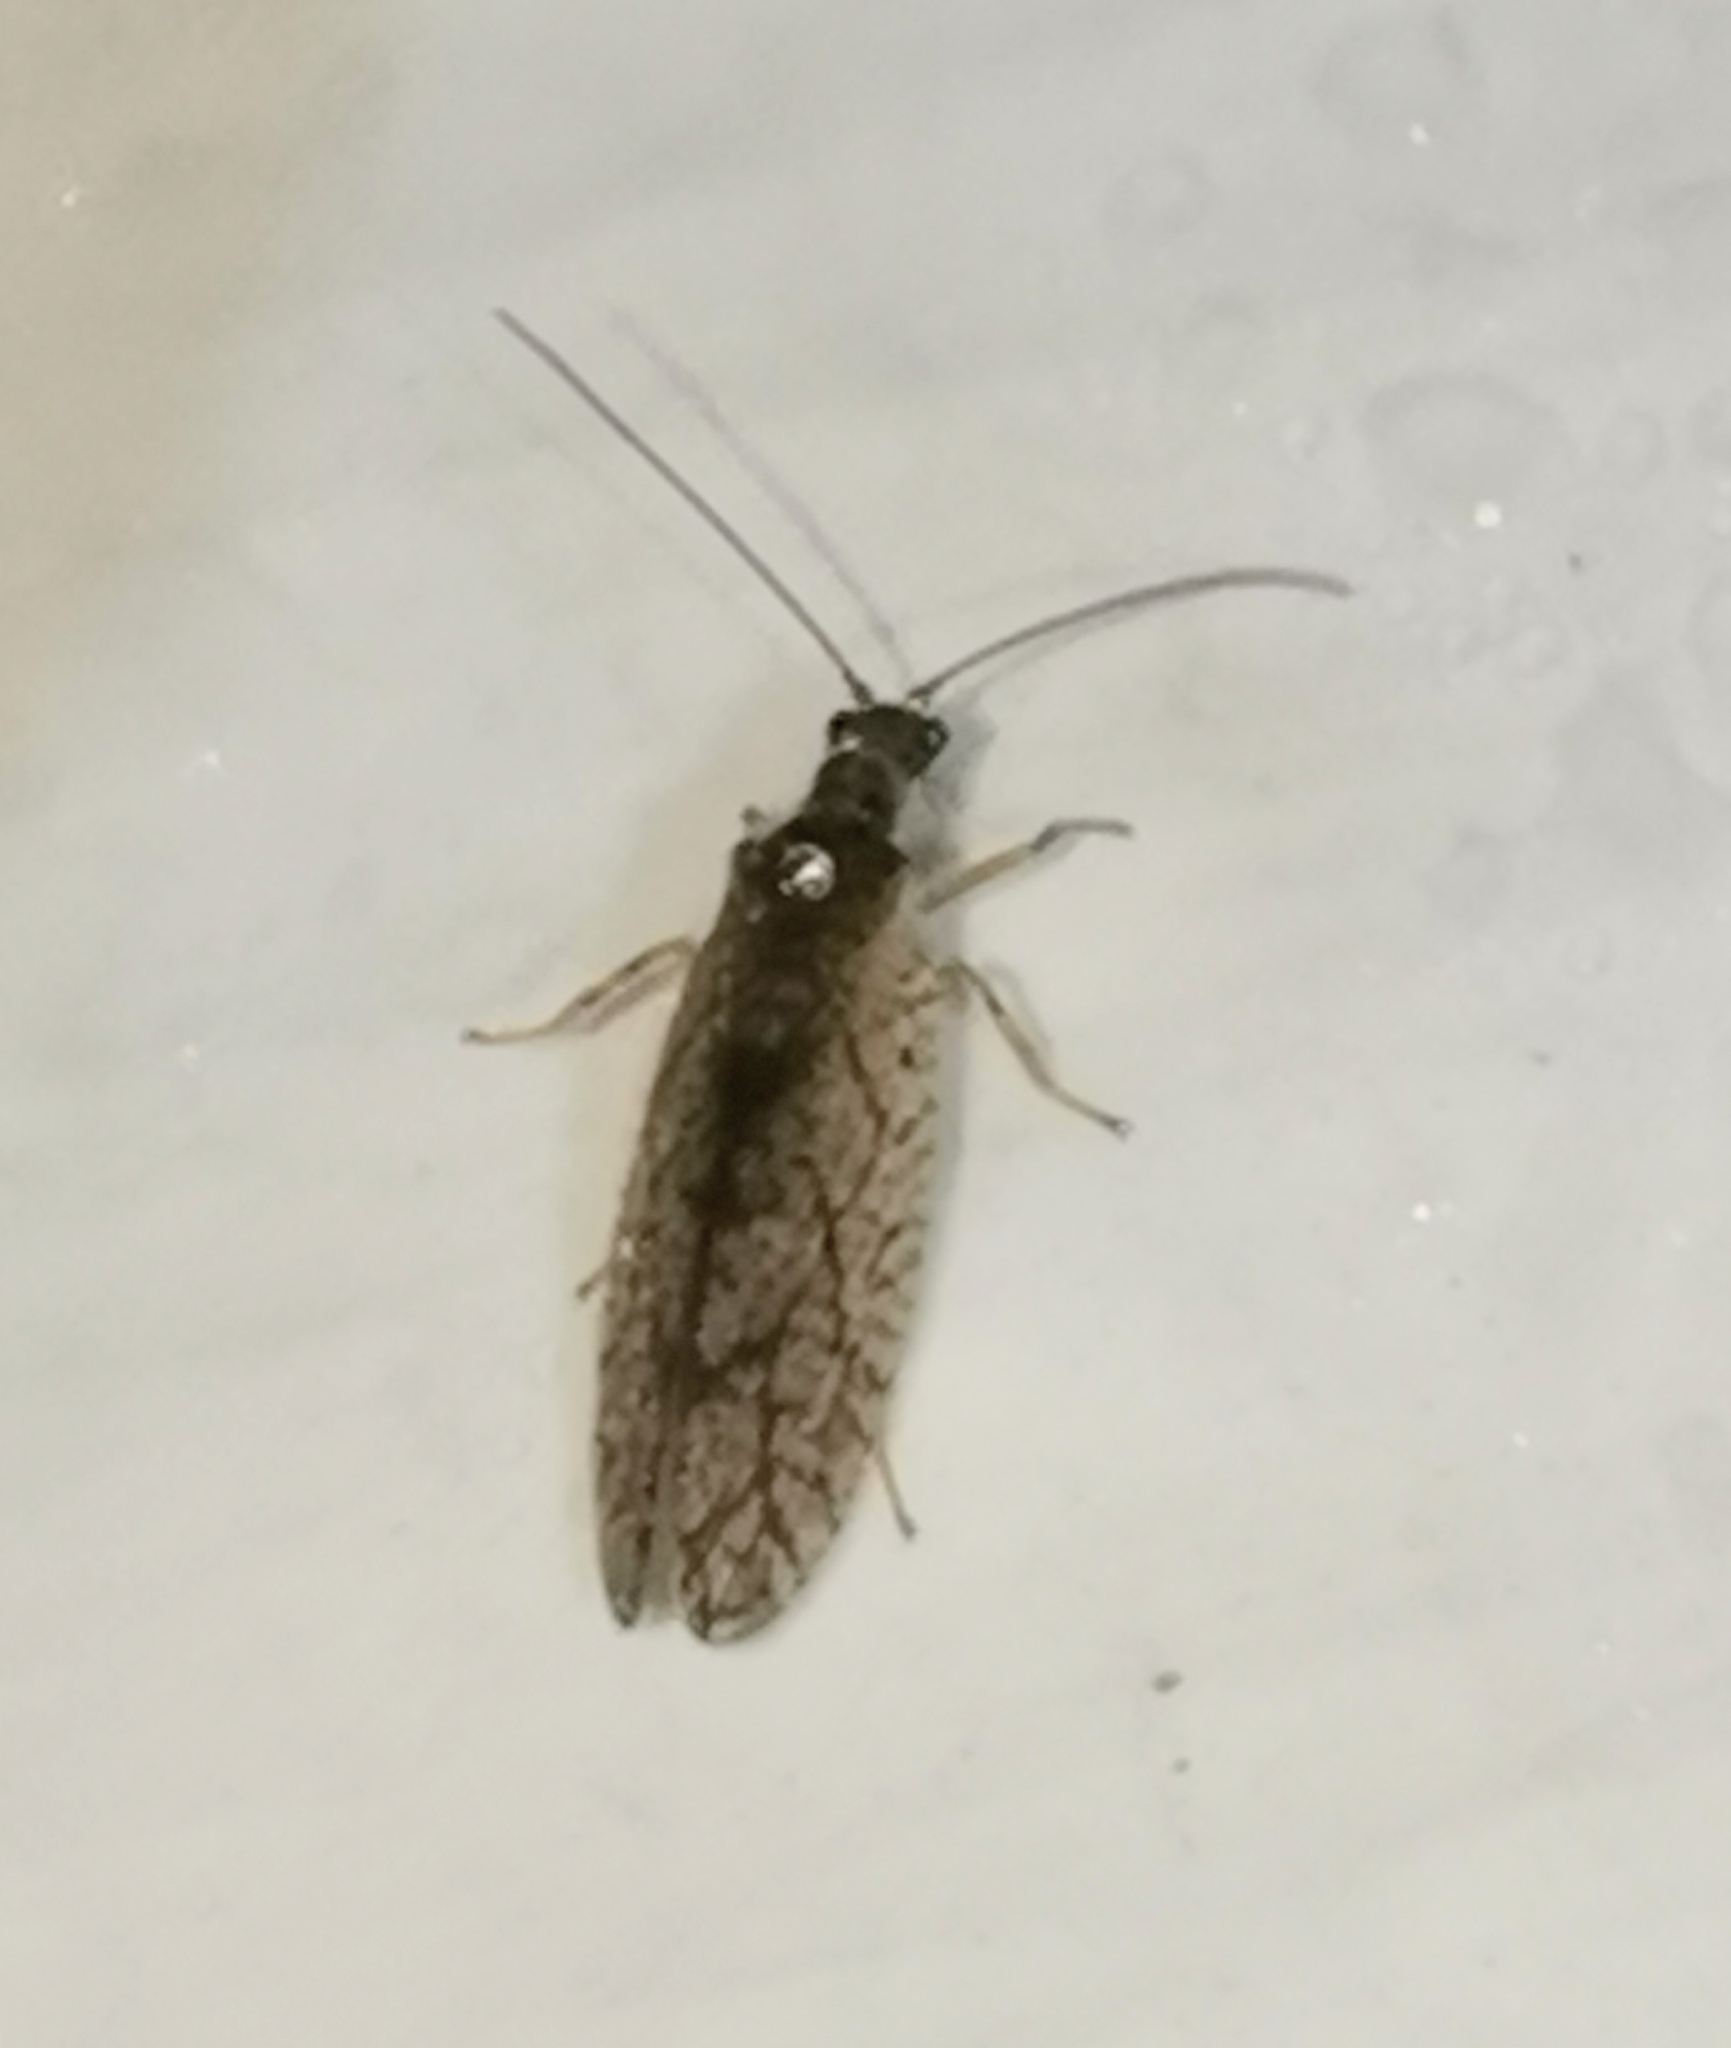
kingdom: Animalia
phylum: Arthropoda
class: Insecta
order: Neuroptera
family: Hemerobiidae
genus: Micromus
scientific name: Micromus angulatus
